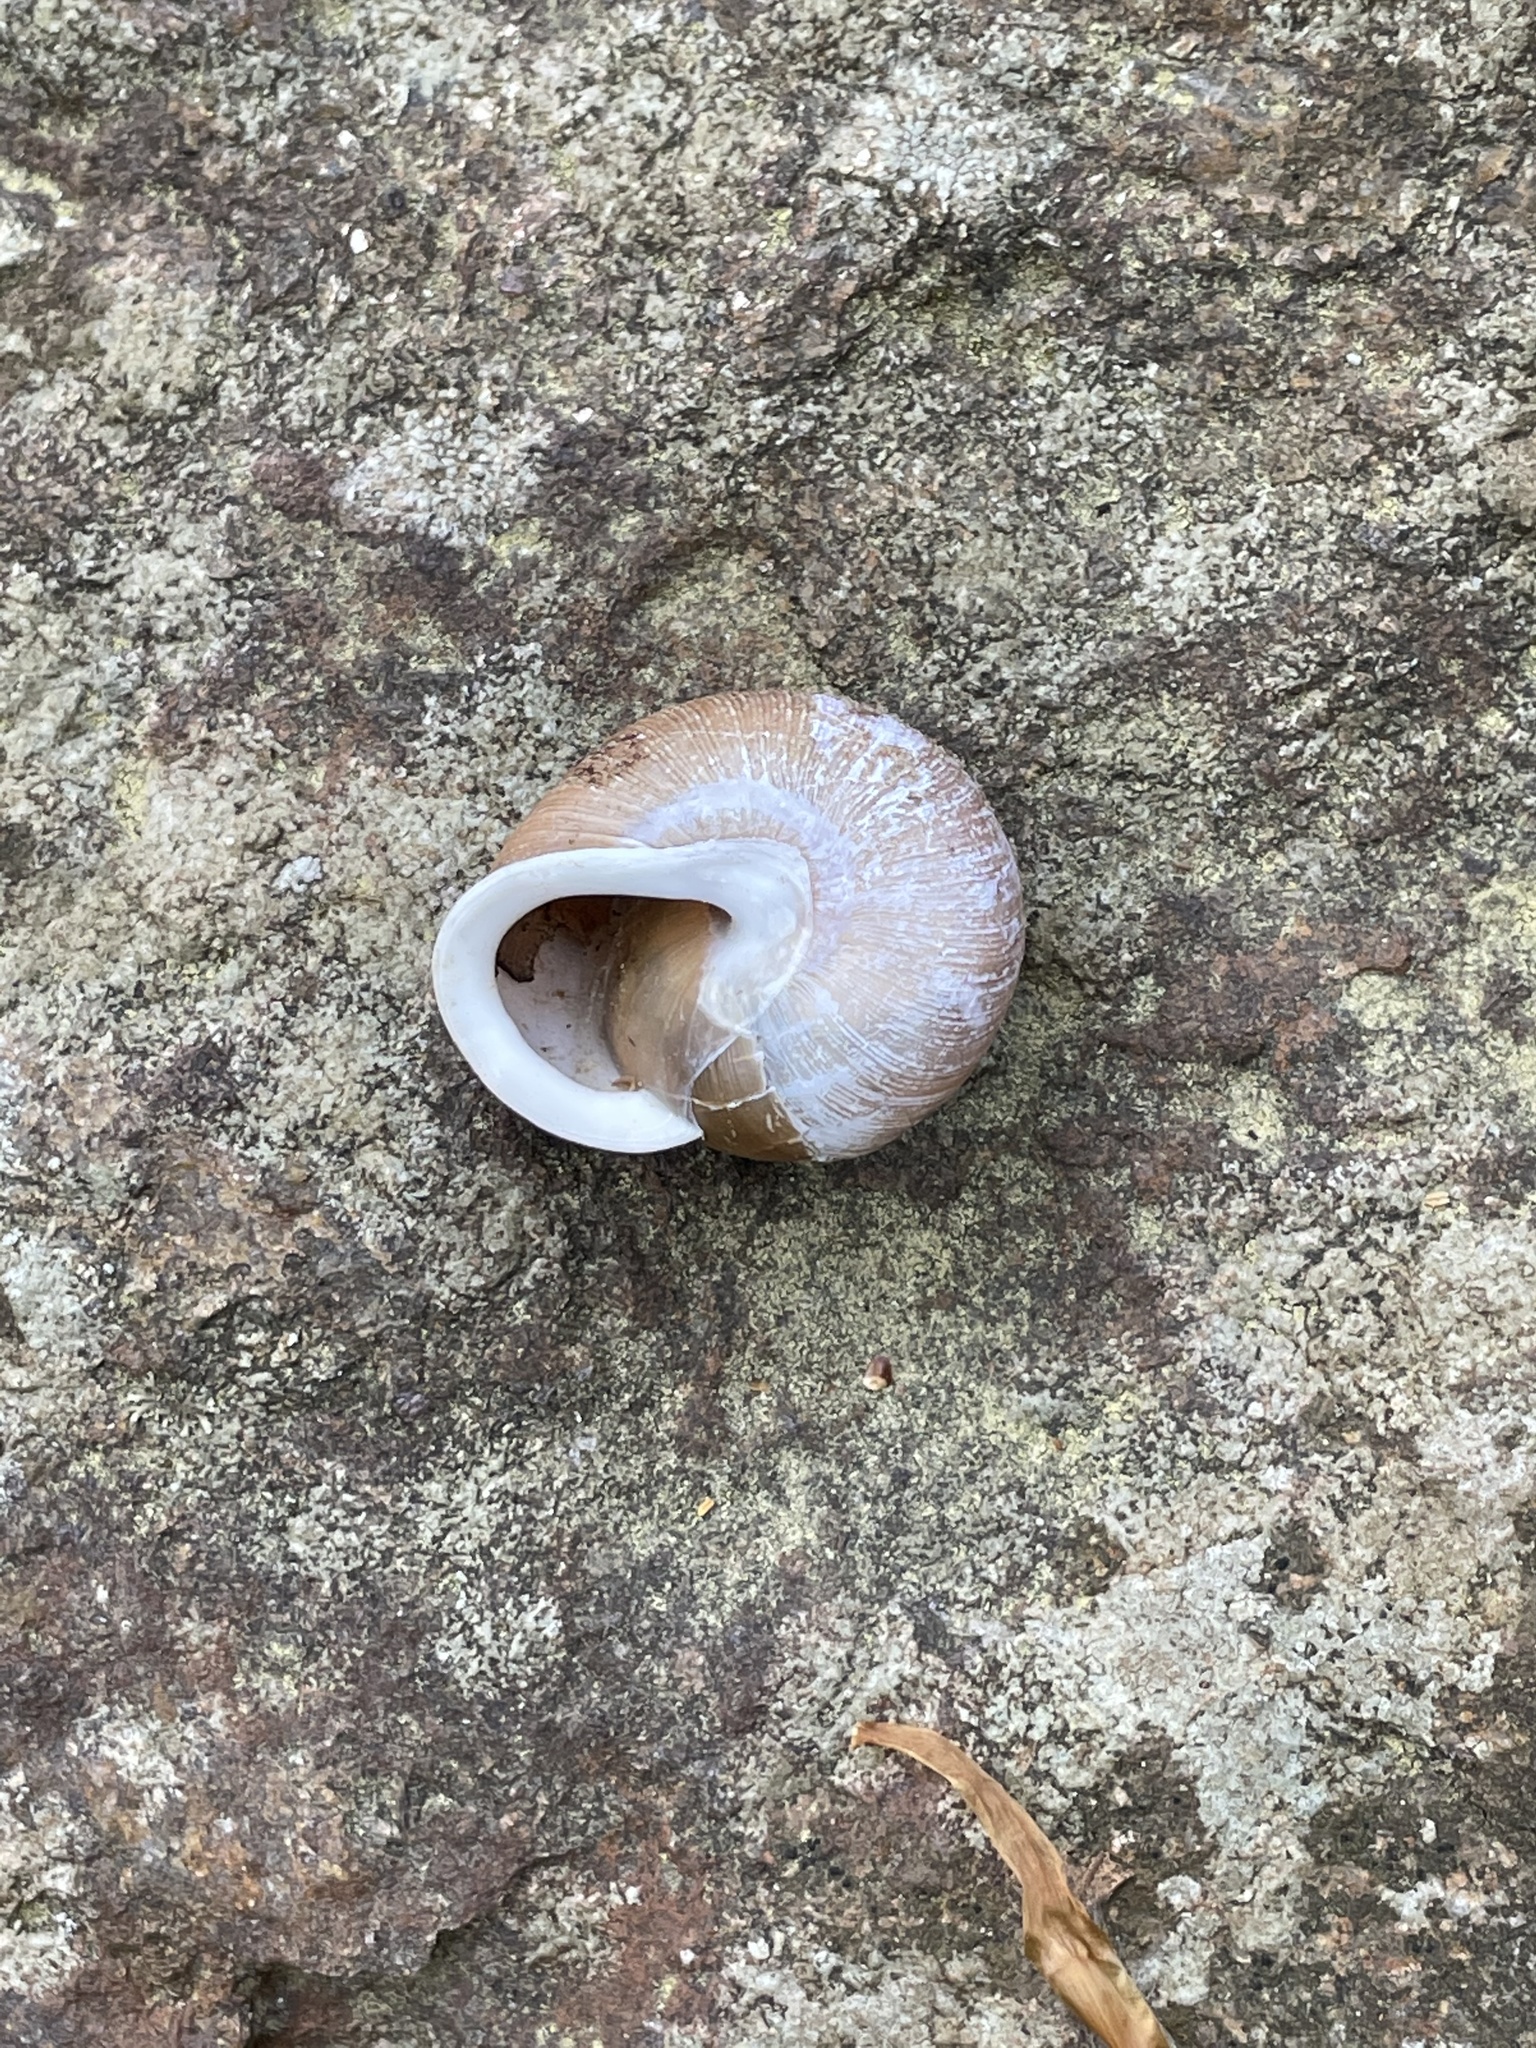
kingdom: Animalia
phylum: Mollusca
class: Gastropoda
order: Stylommatophora
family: Polygyridae
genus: Neohelix
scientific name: Neohelix albolabris
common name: Eastern whitelip
